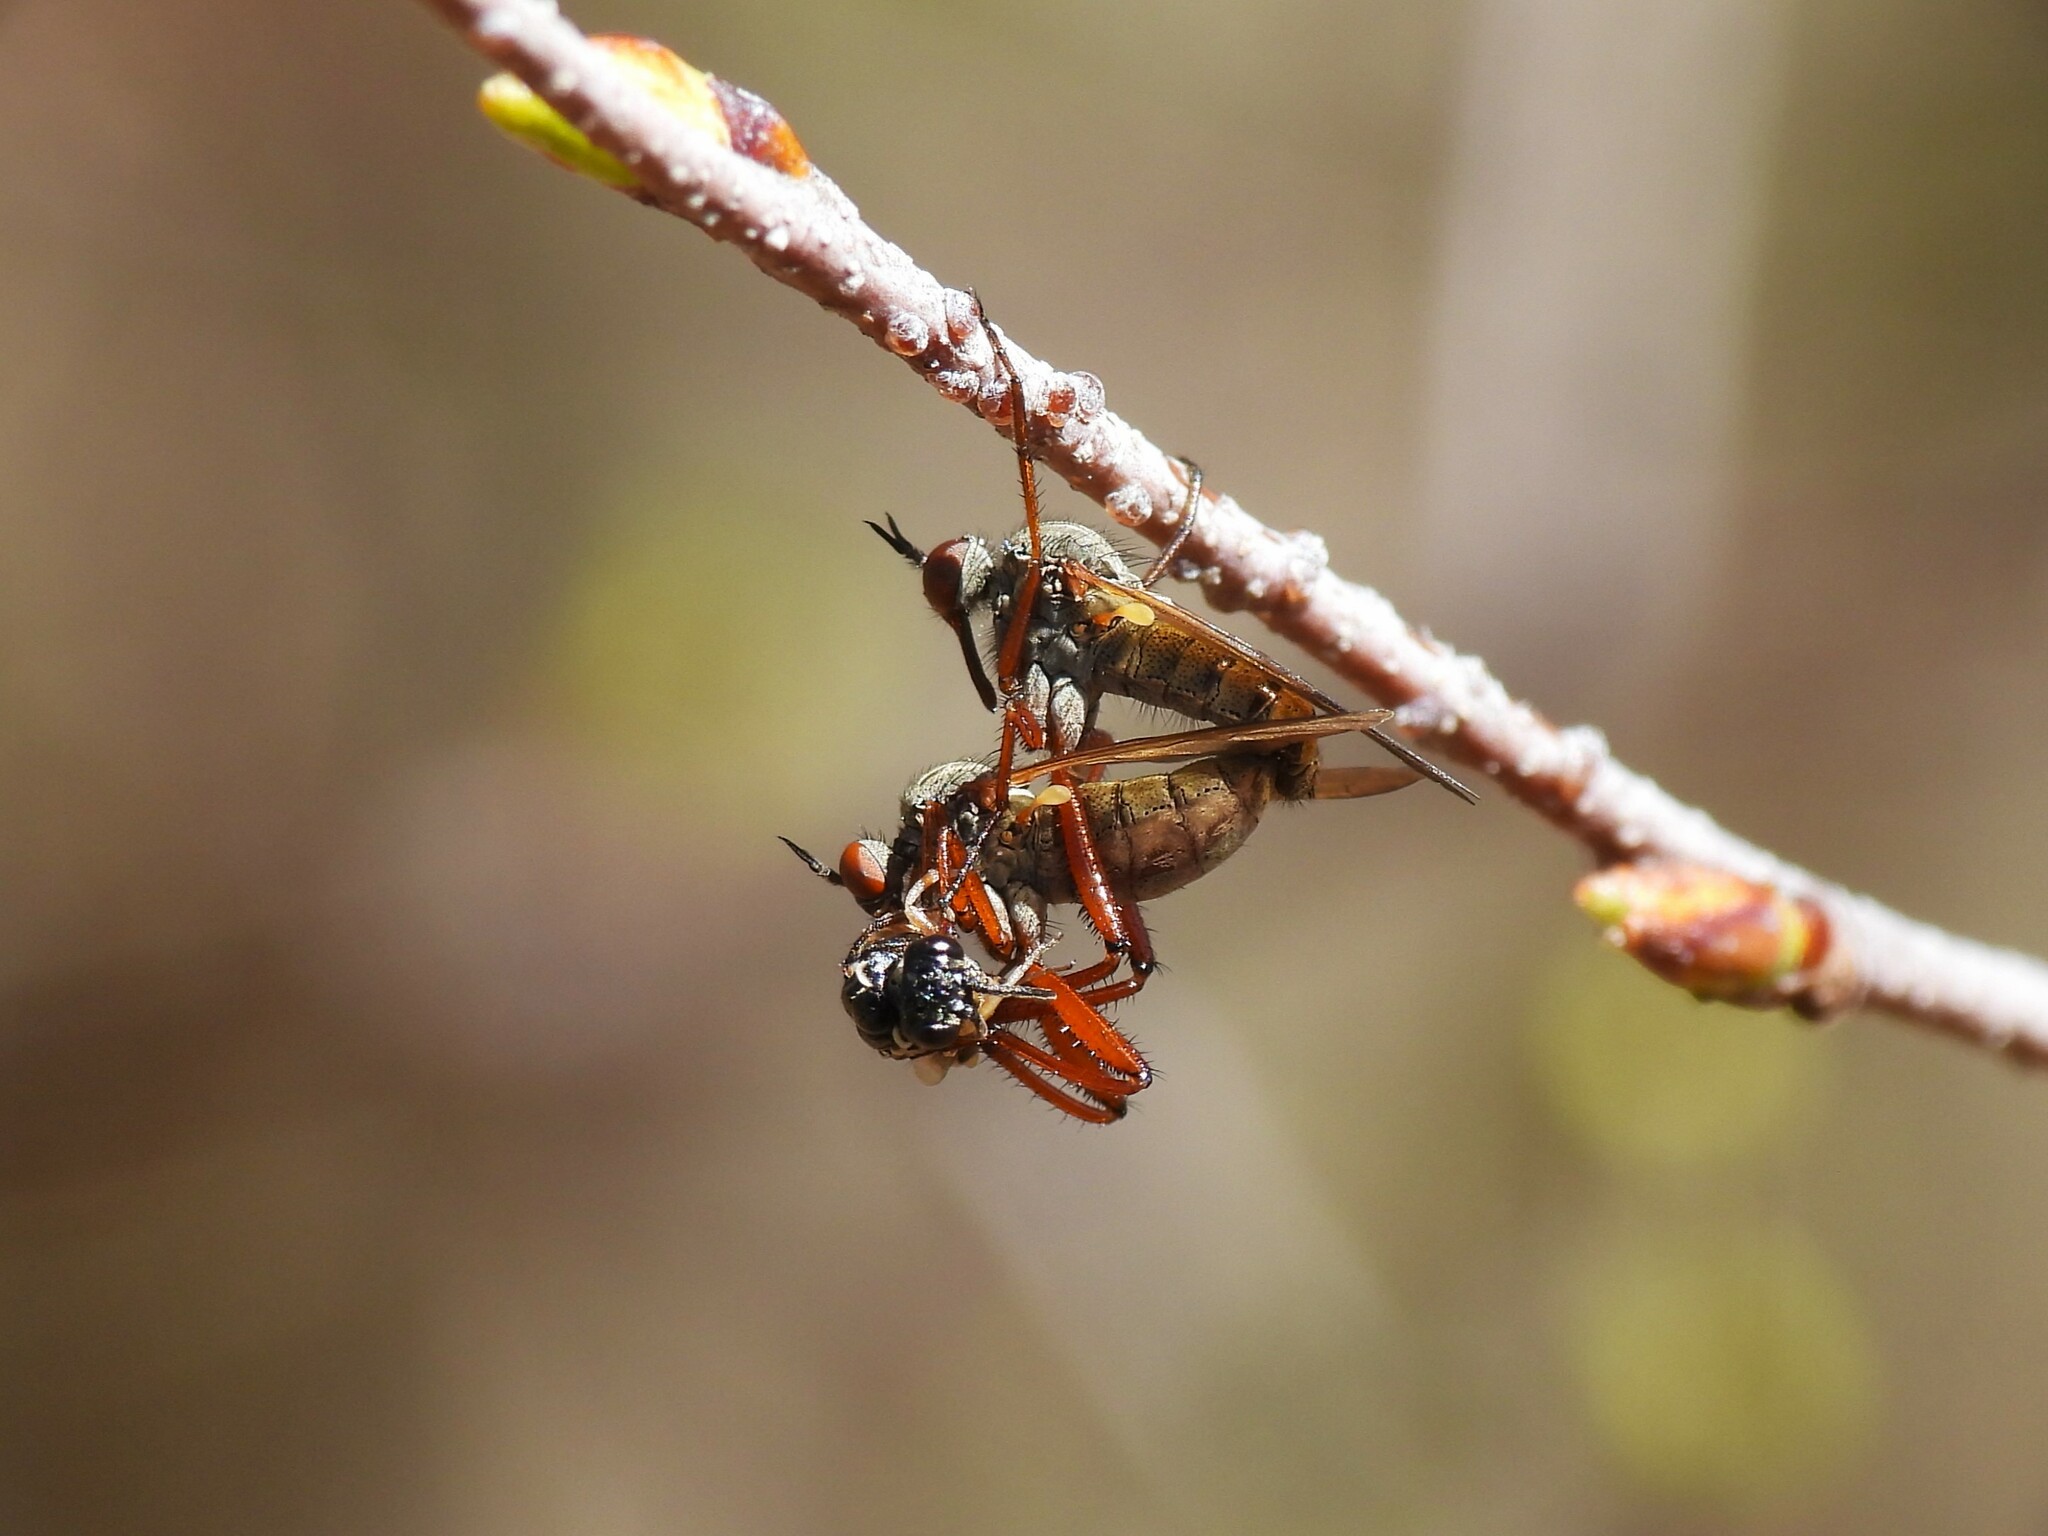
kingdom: Animalia
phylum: Arthropoda
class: Insecta
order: Diptera
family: Empididae
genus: Empis
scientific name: Empis spectabilis
